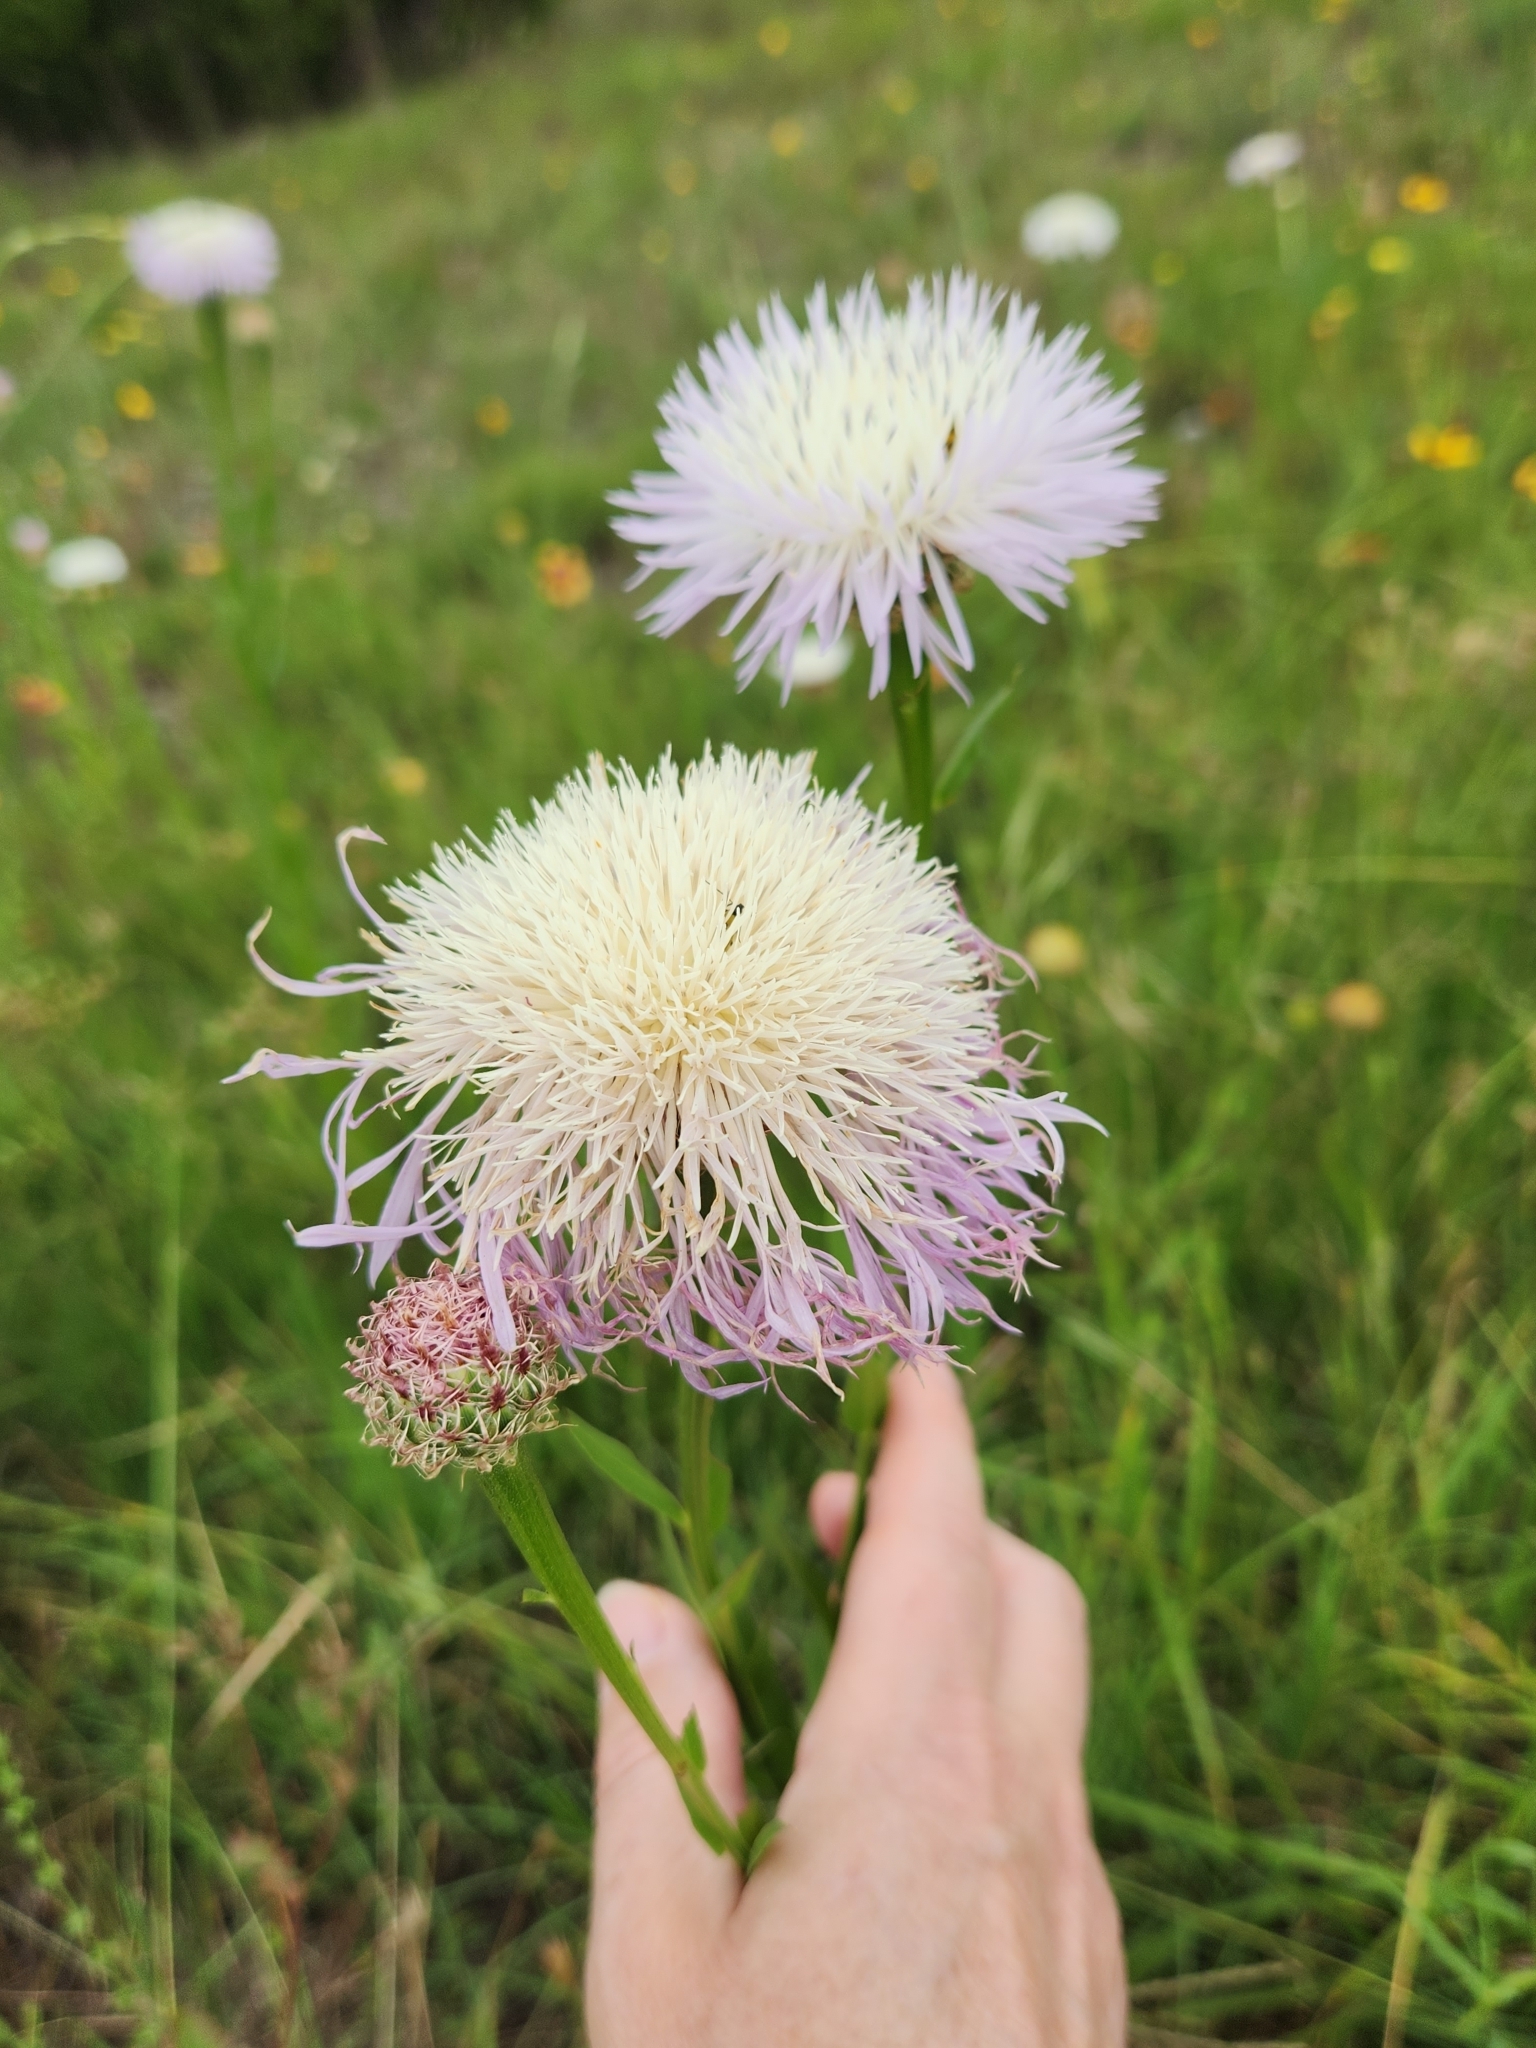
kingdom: Plantae
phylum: Tracheophyta
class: Magnoliopsida
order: Asterales
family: Asteraceae
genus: Plectocephalus
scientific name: Plectocephalus americanus
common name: American basket-flower
